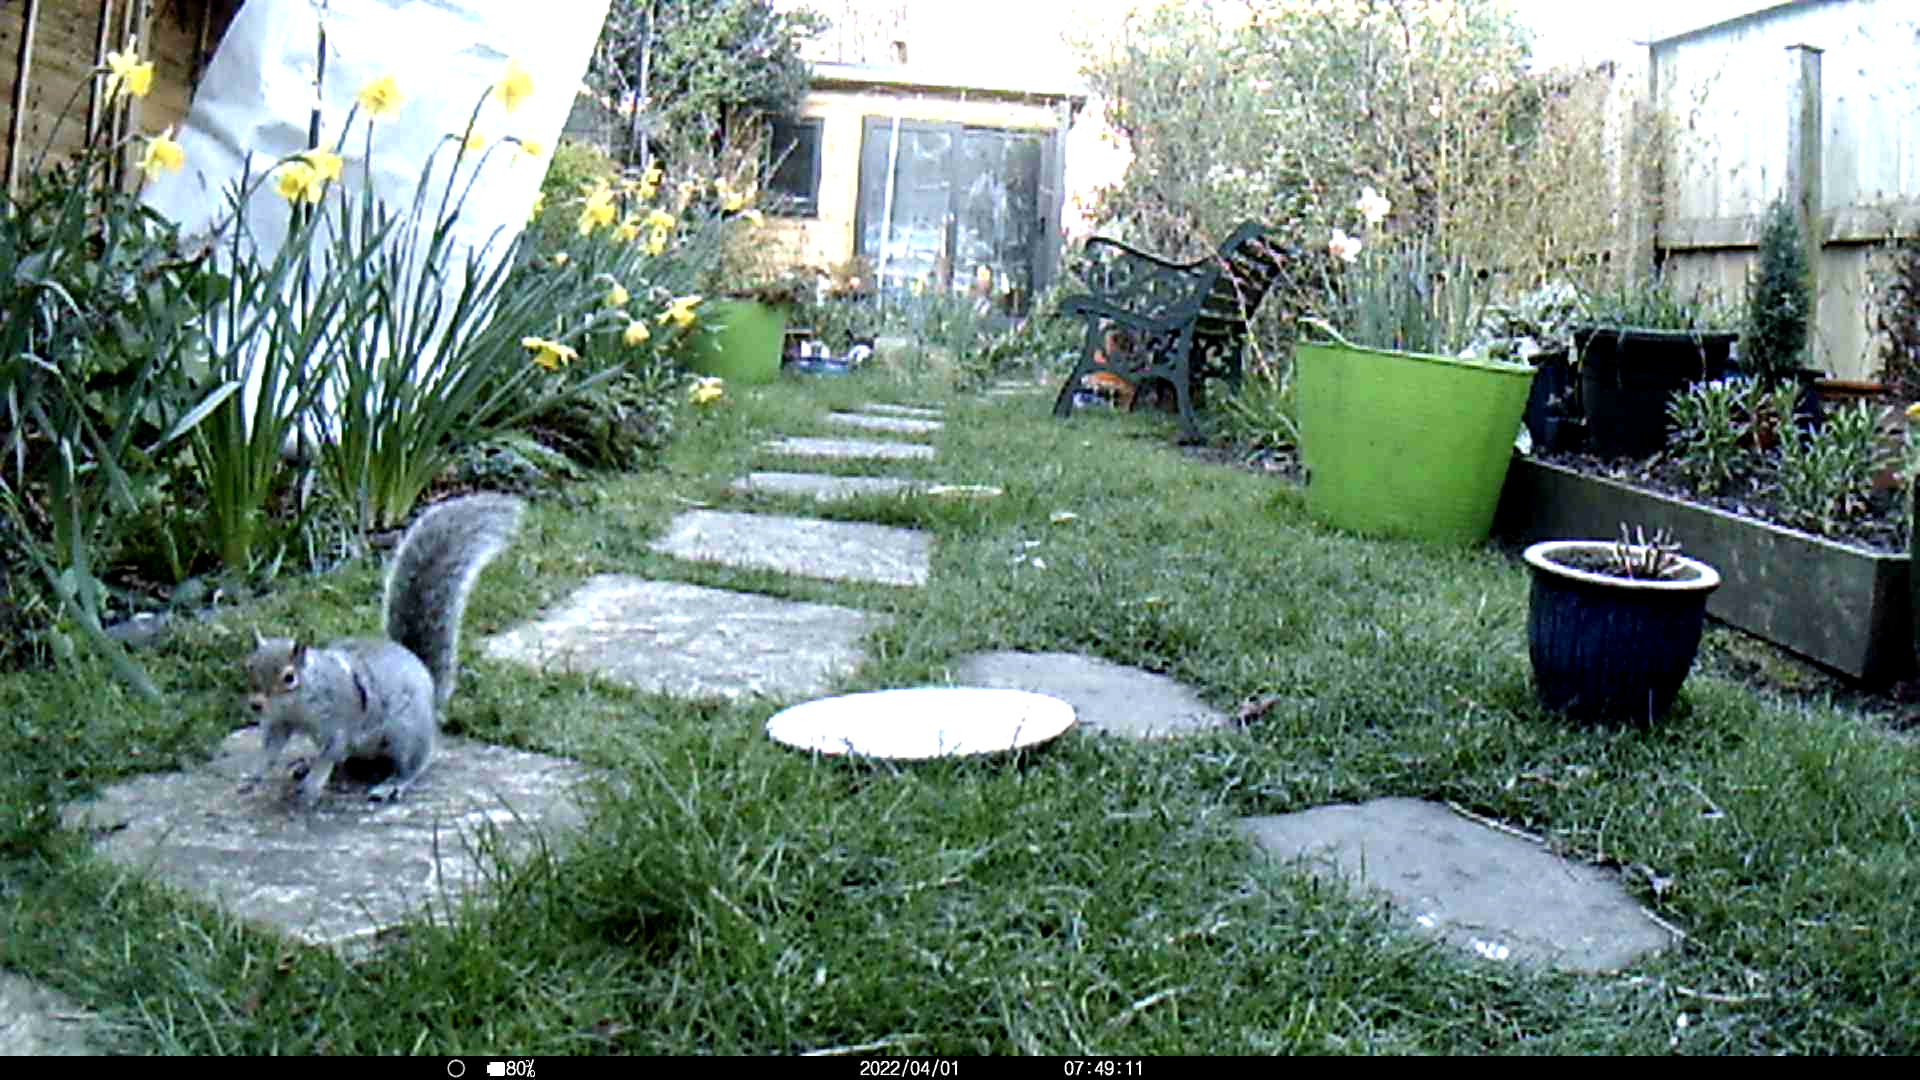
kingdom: Animalia
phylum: Chordata
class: Mammalia
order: Rodentia
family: Sciuridae
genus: Sciurus
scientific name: Sciurus carolinensis
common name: Eastern gray squirrel
